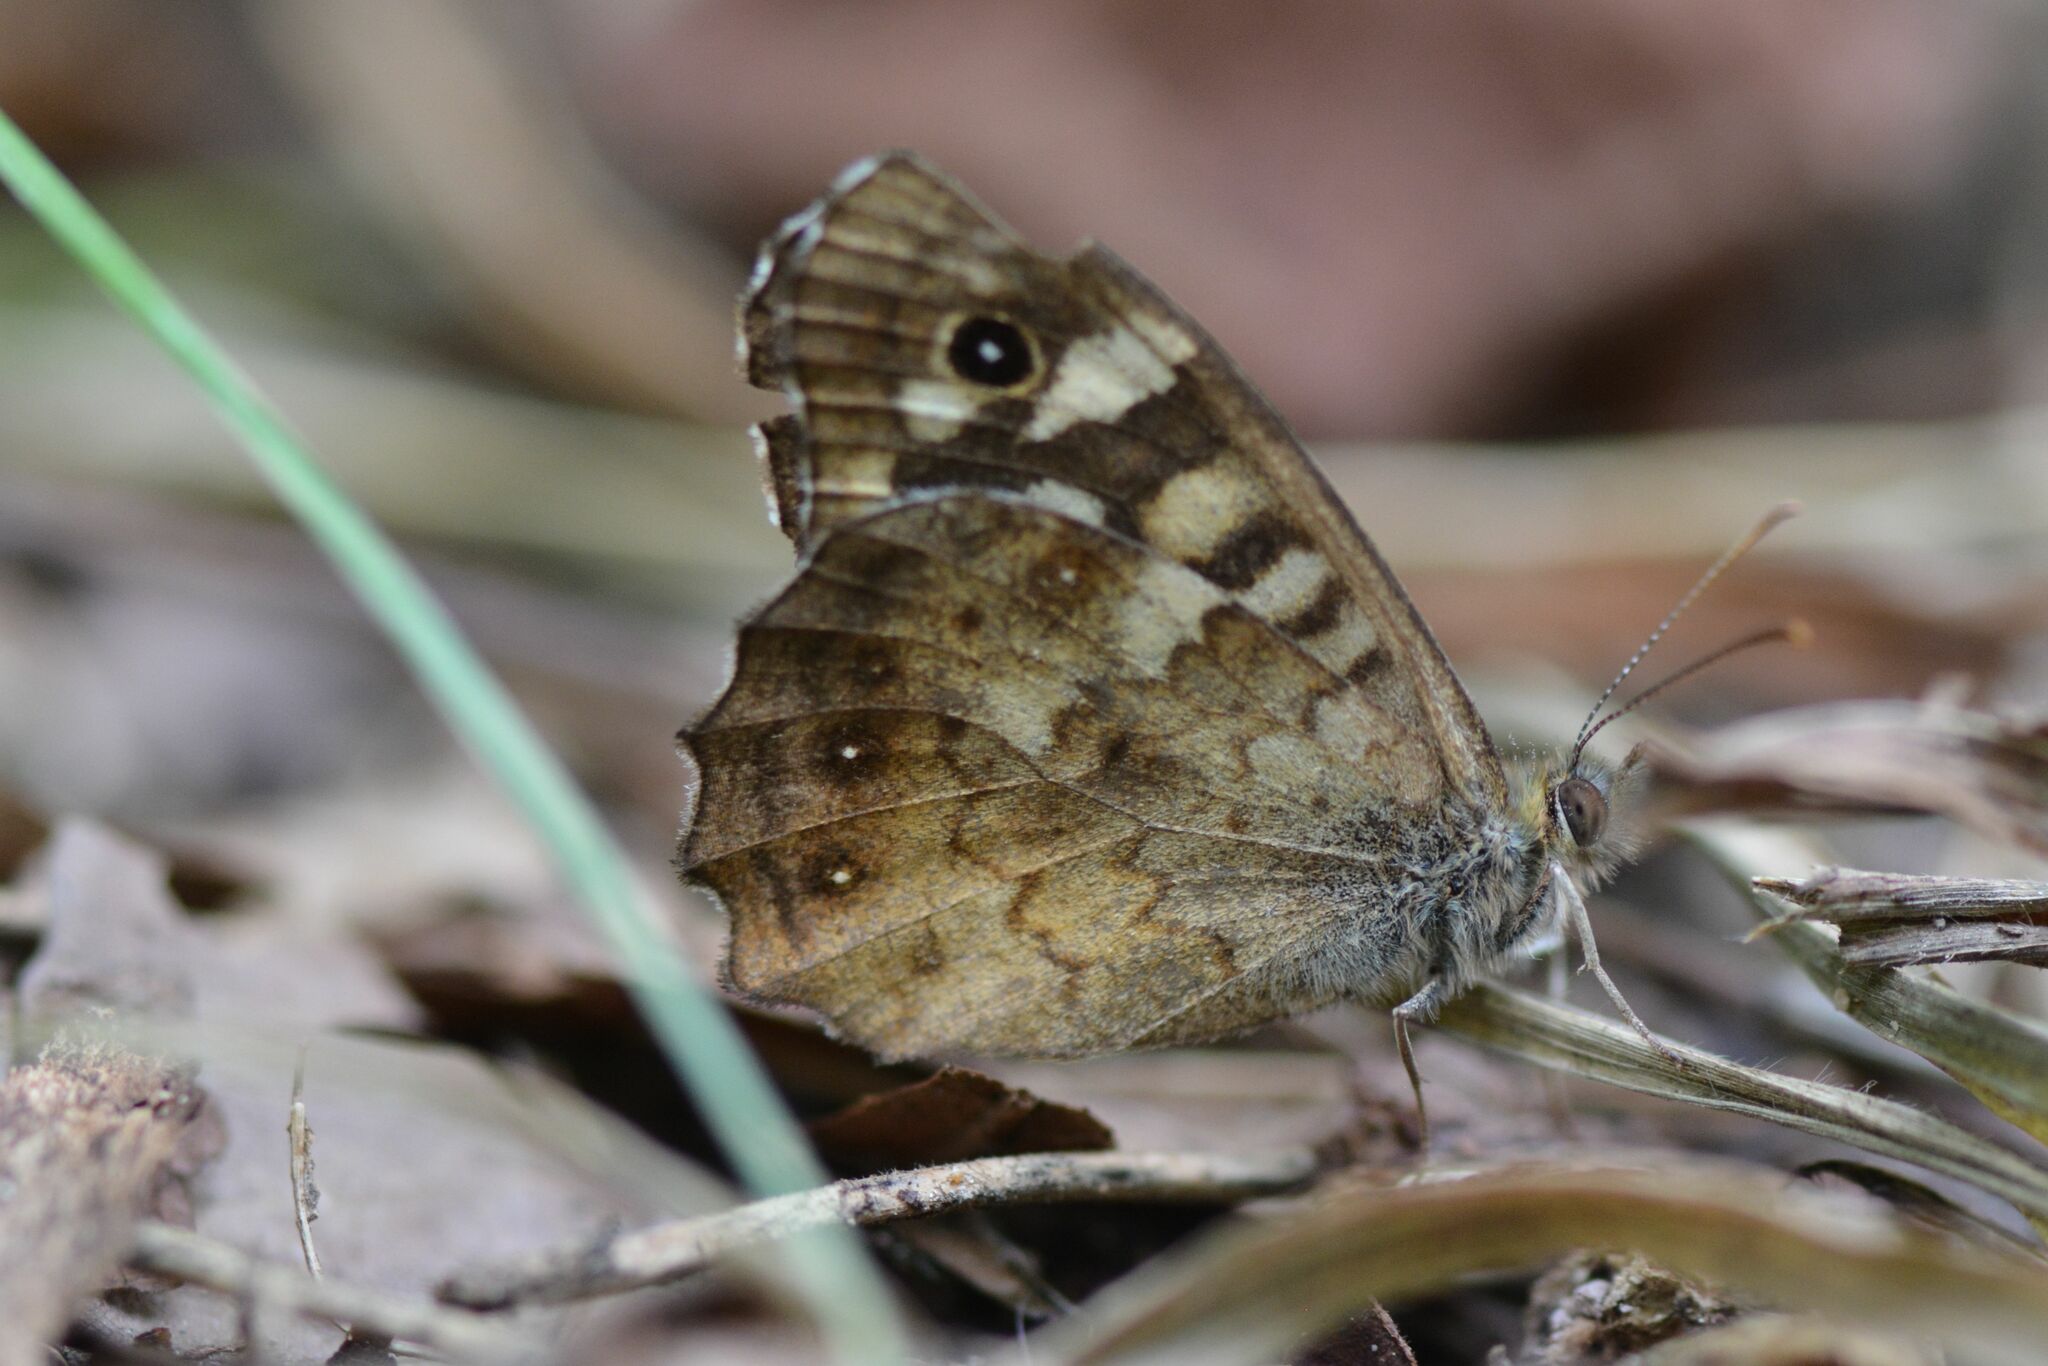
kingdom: Animalia
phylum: Arthropoda
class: Insecta
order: Lepidoptera
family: Nymphalidae
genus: Pararge
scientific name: Pararge aegeria
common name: Speckled wood
